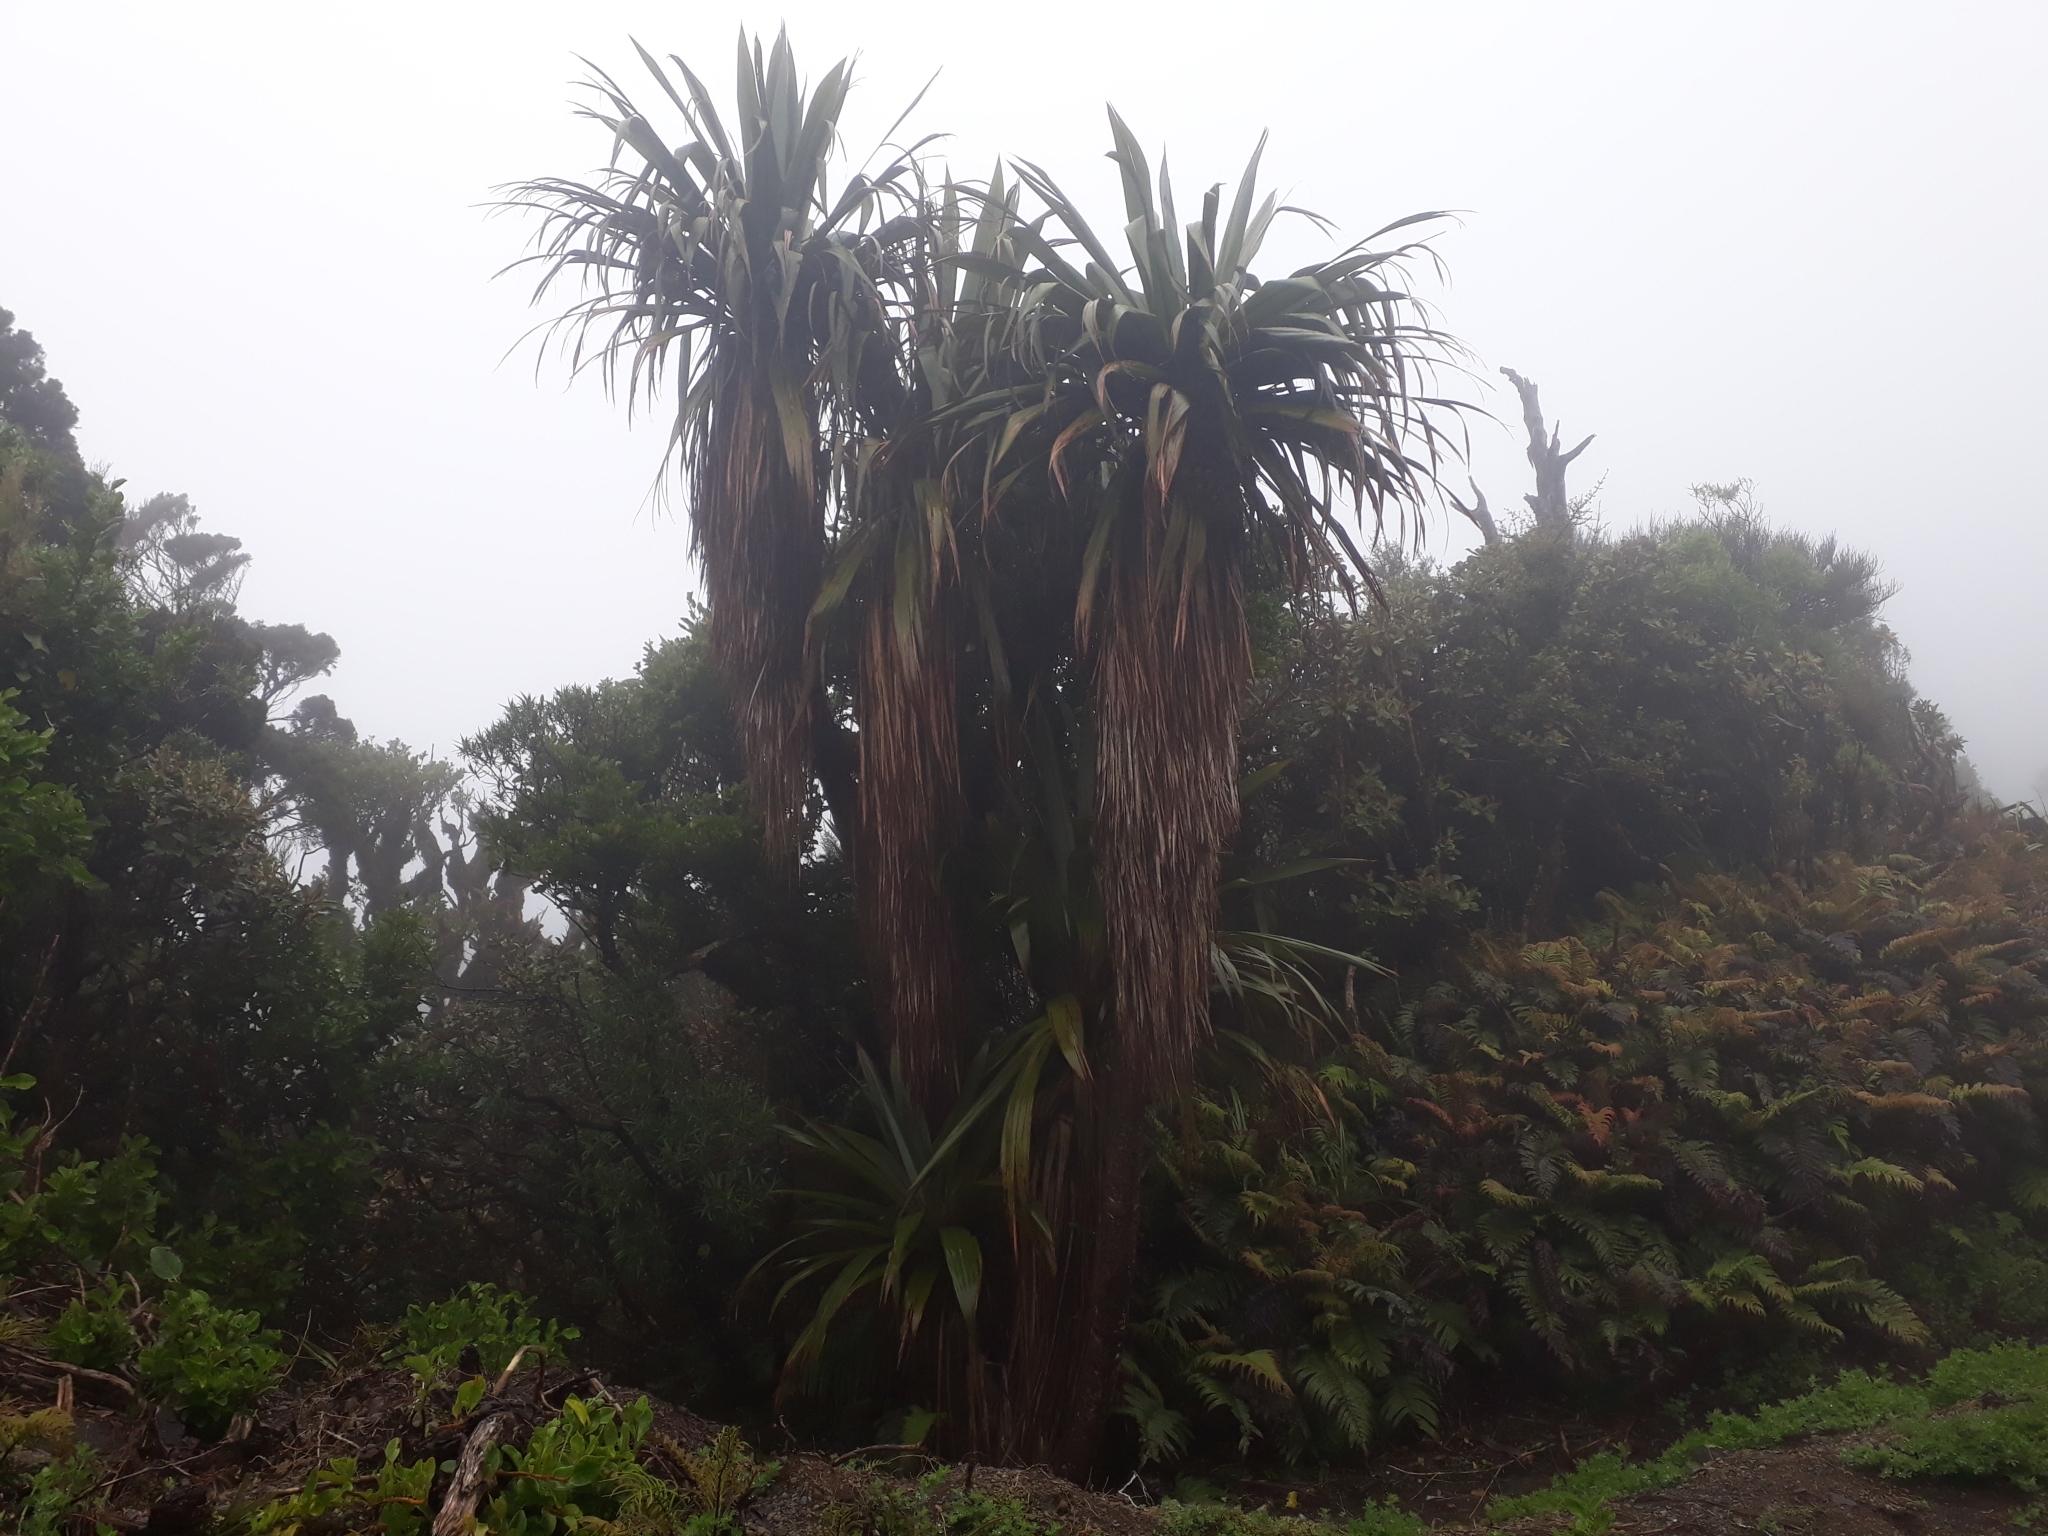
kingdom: Plantae
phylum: Tracheophyta
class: Liliopsida
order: Asparagales
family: Asparagaceae
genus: Cordyline
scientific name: Cordyline indivisa
